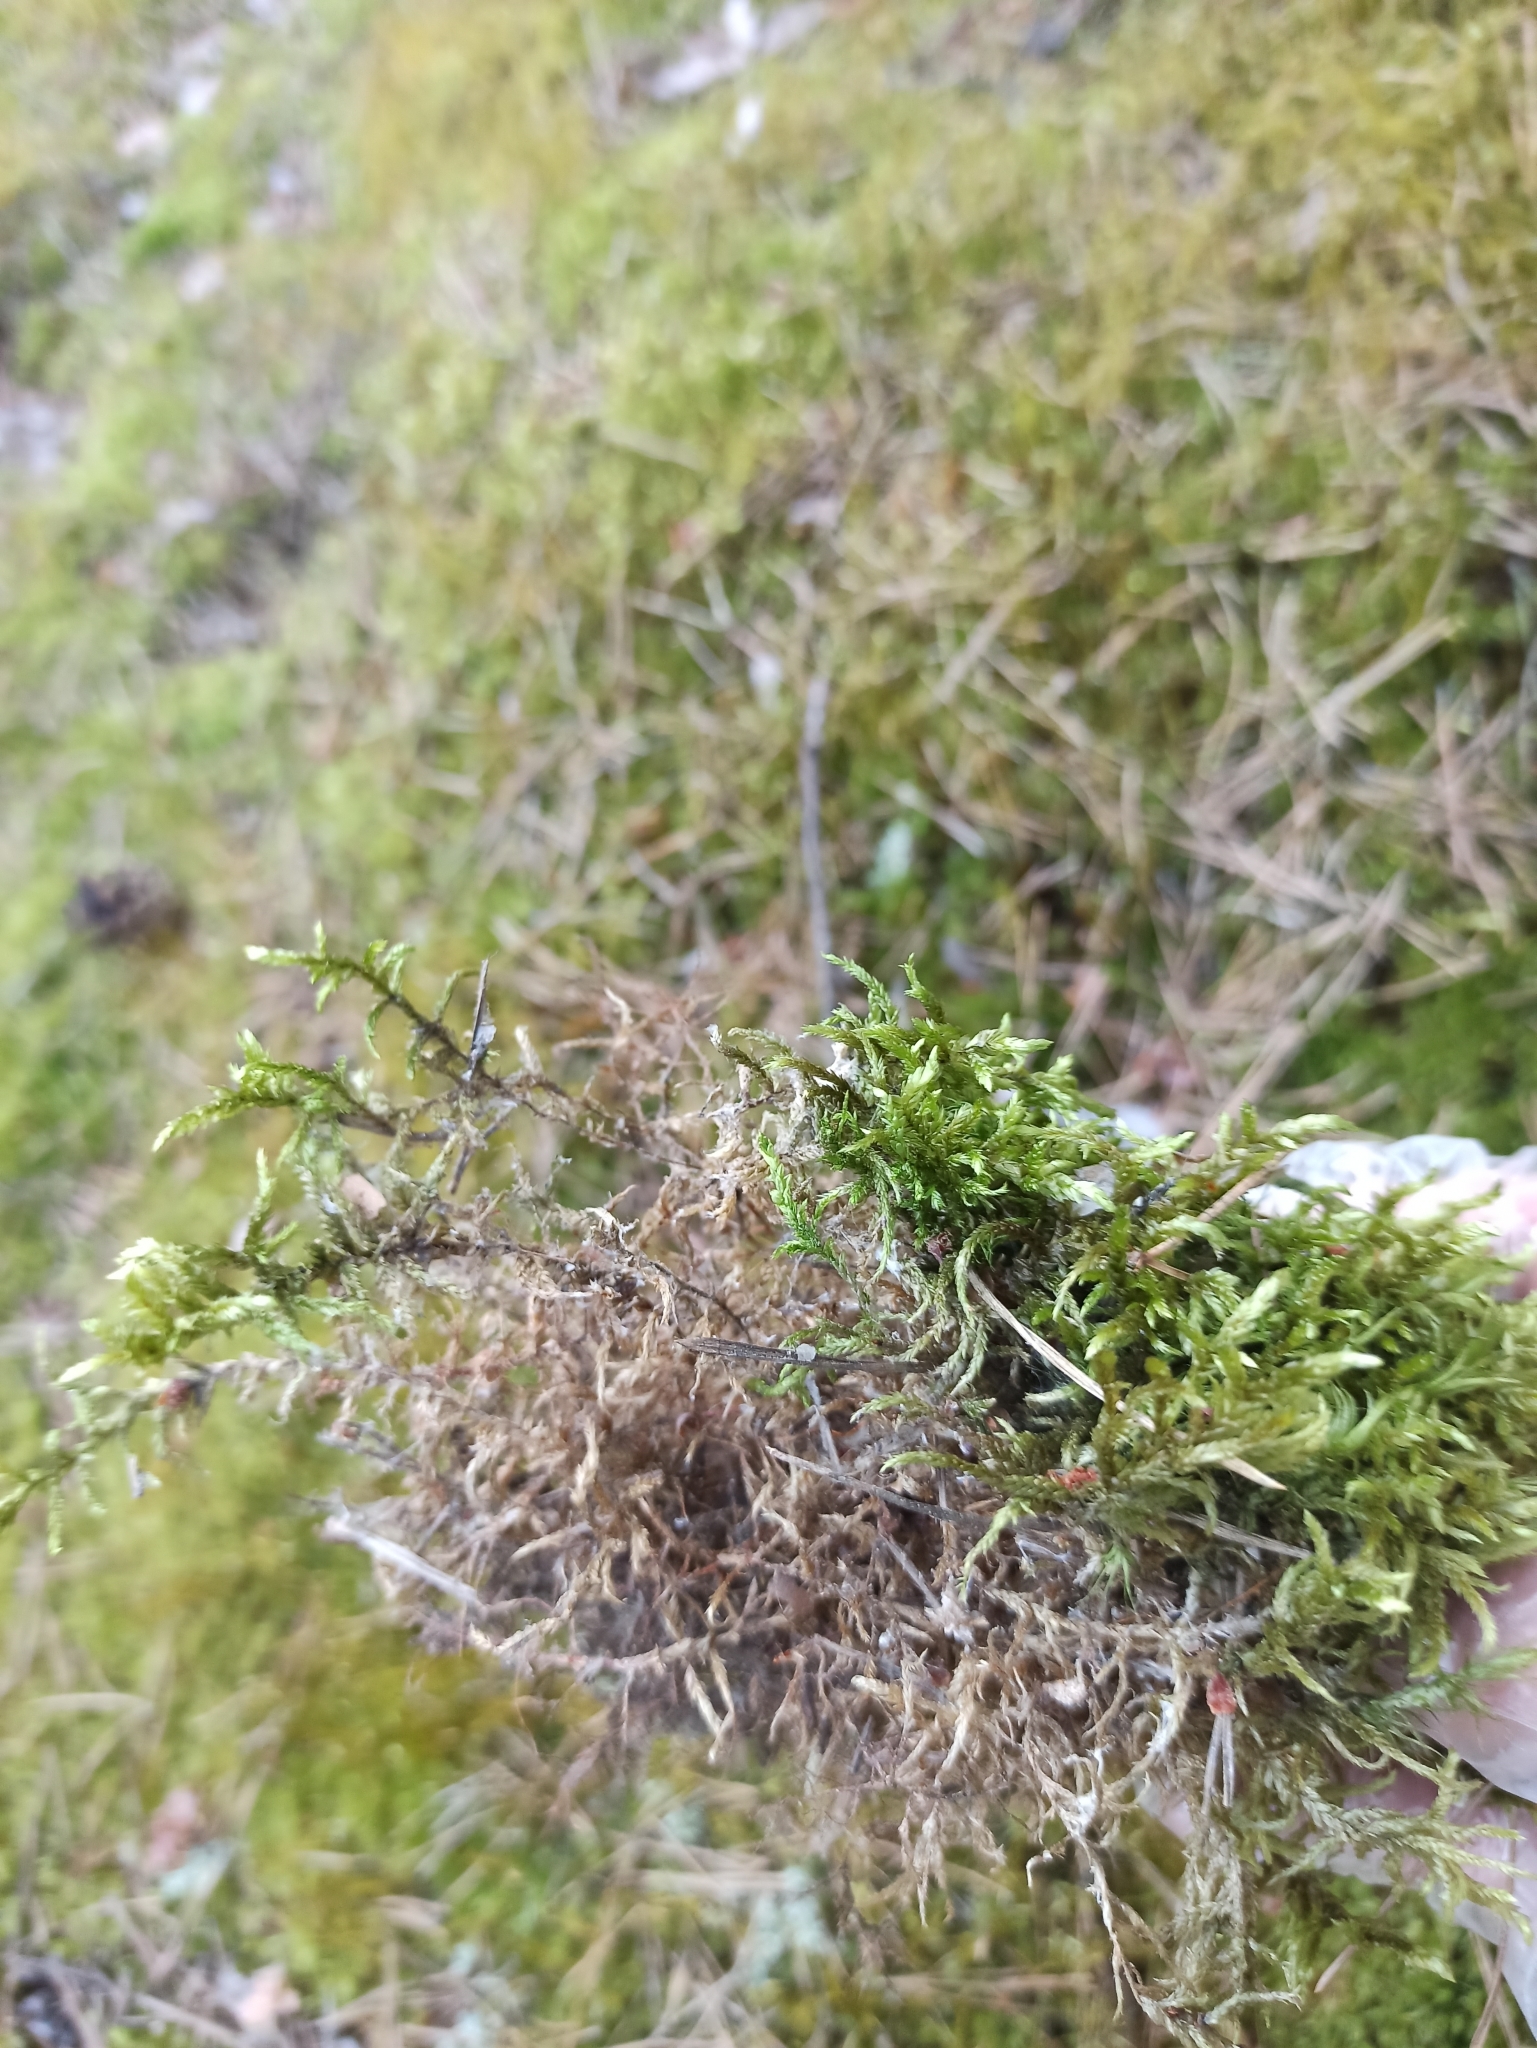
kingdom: Plantae
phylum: Bryophyta
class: Bryopsida
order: Hypnales
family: Hylocomiaceae
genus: Pleurozium
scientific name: Pleurozium schreberi
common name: Red-stemmed feather moss
